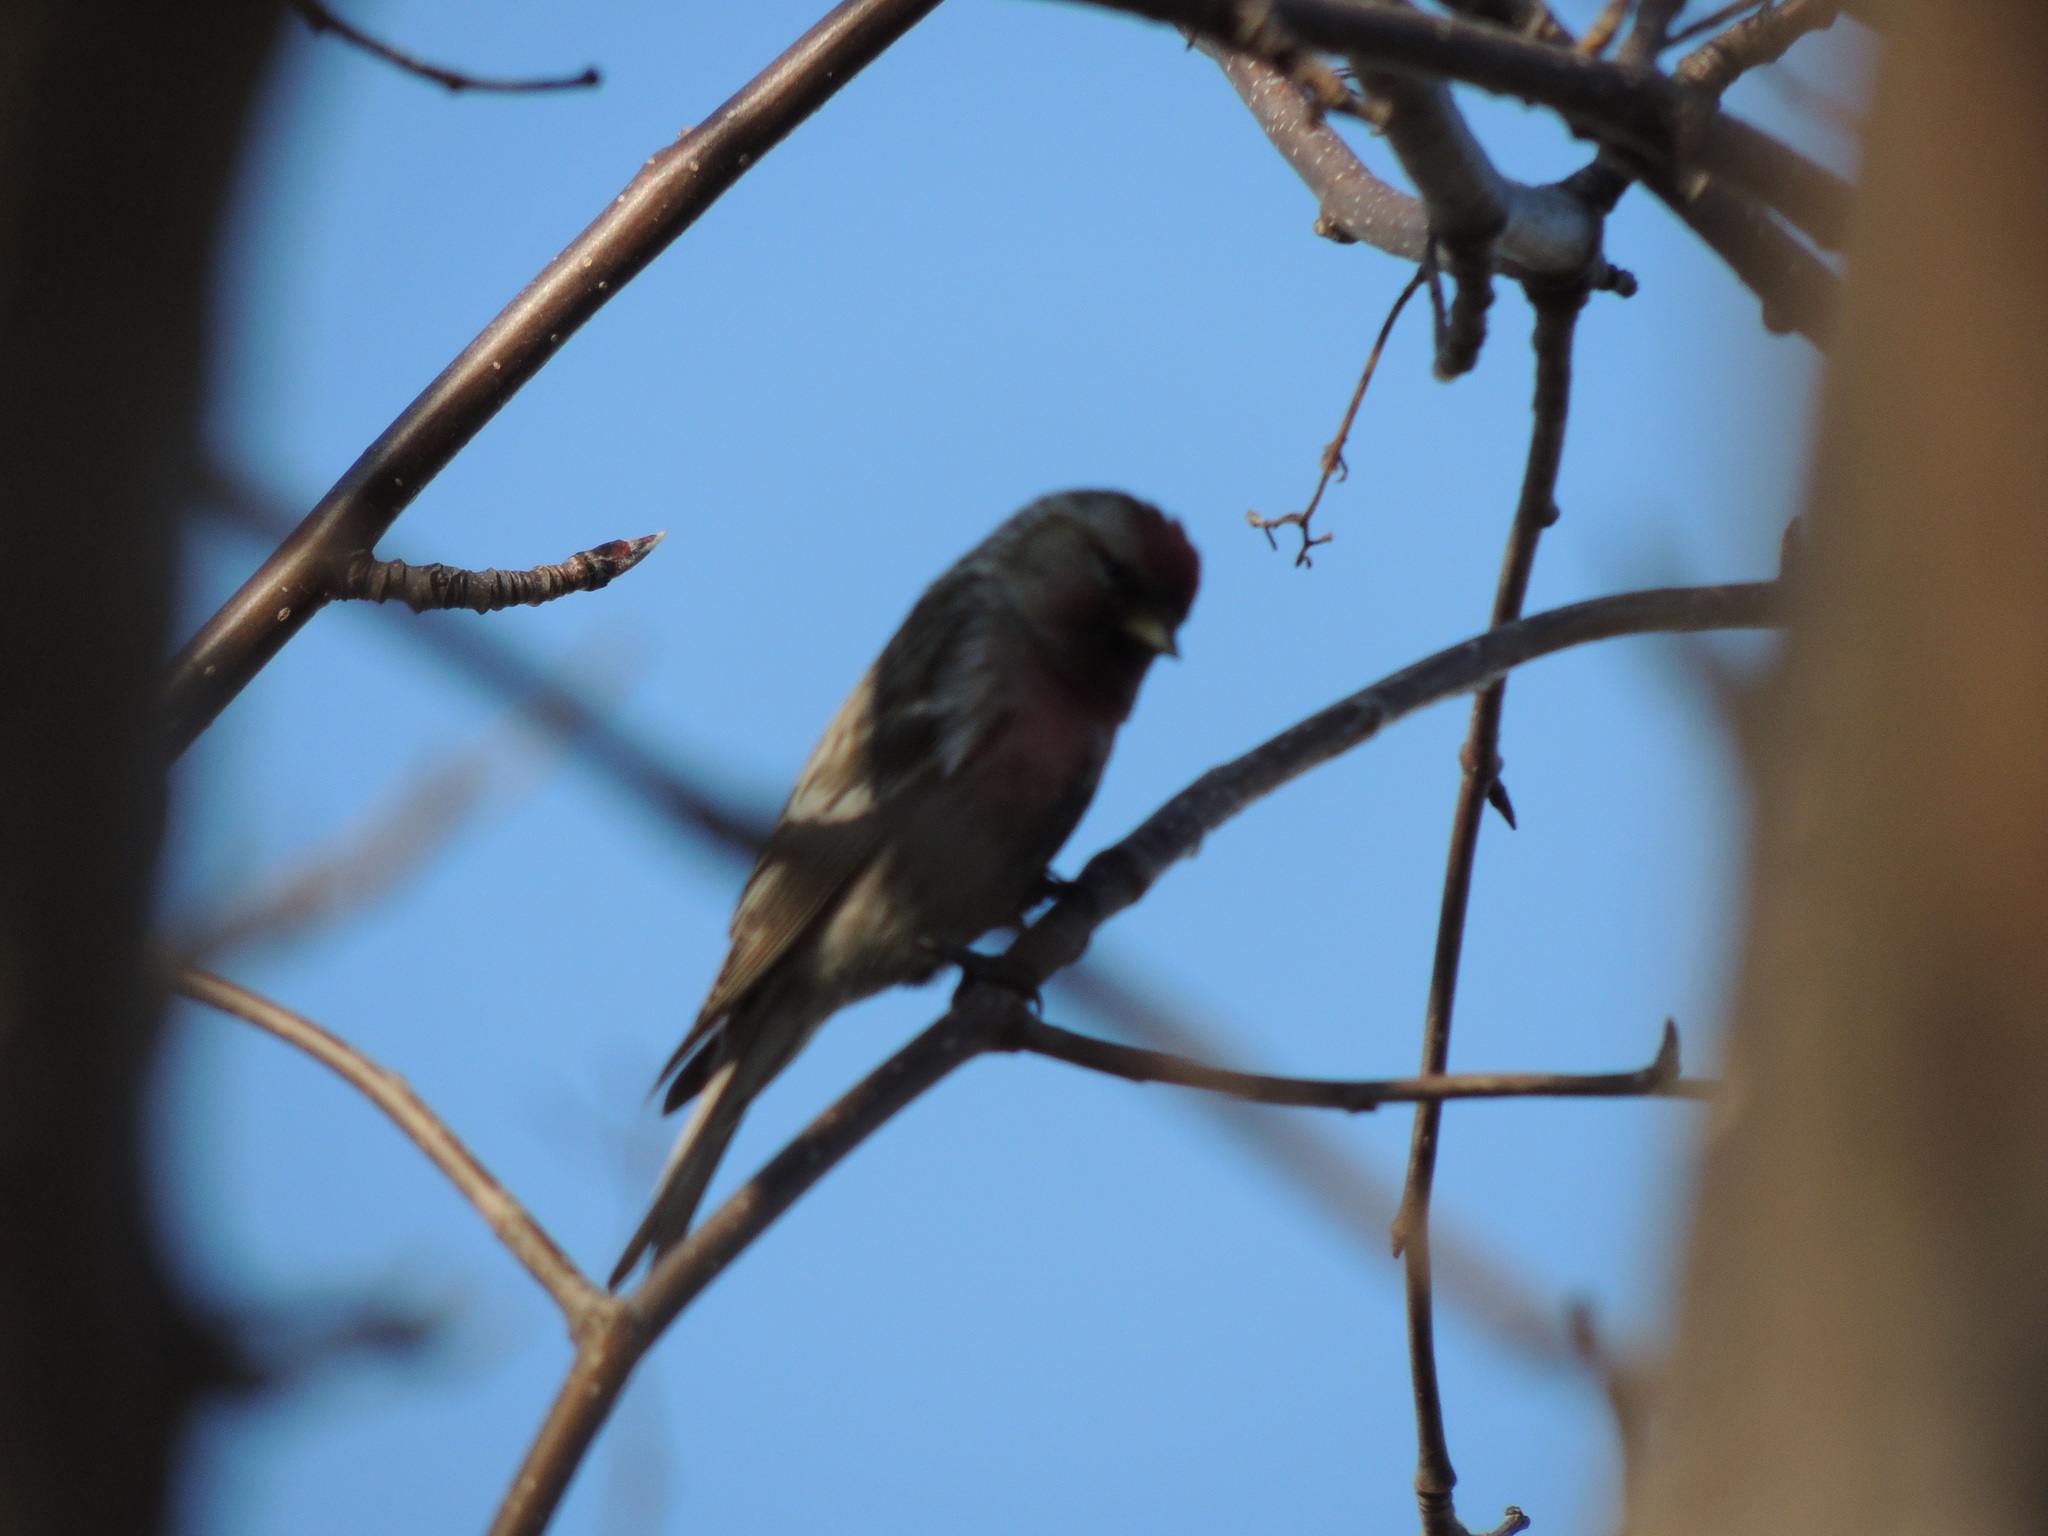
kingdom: Animalia
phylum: Chordata
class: Aves
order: Passeriformes
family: Fringillidae
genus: Acanthis
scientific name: Acanthis flammea
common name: Common redpoll
